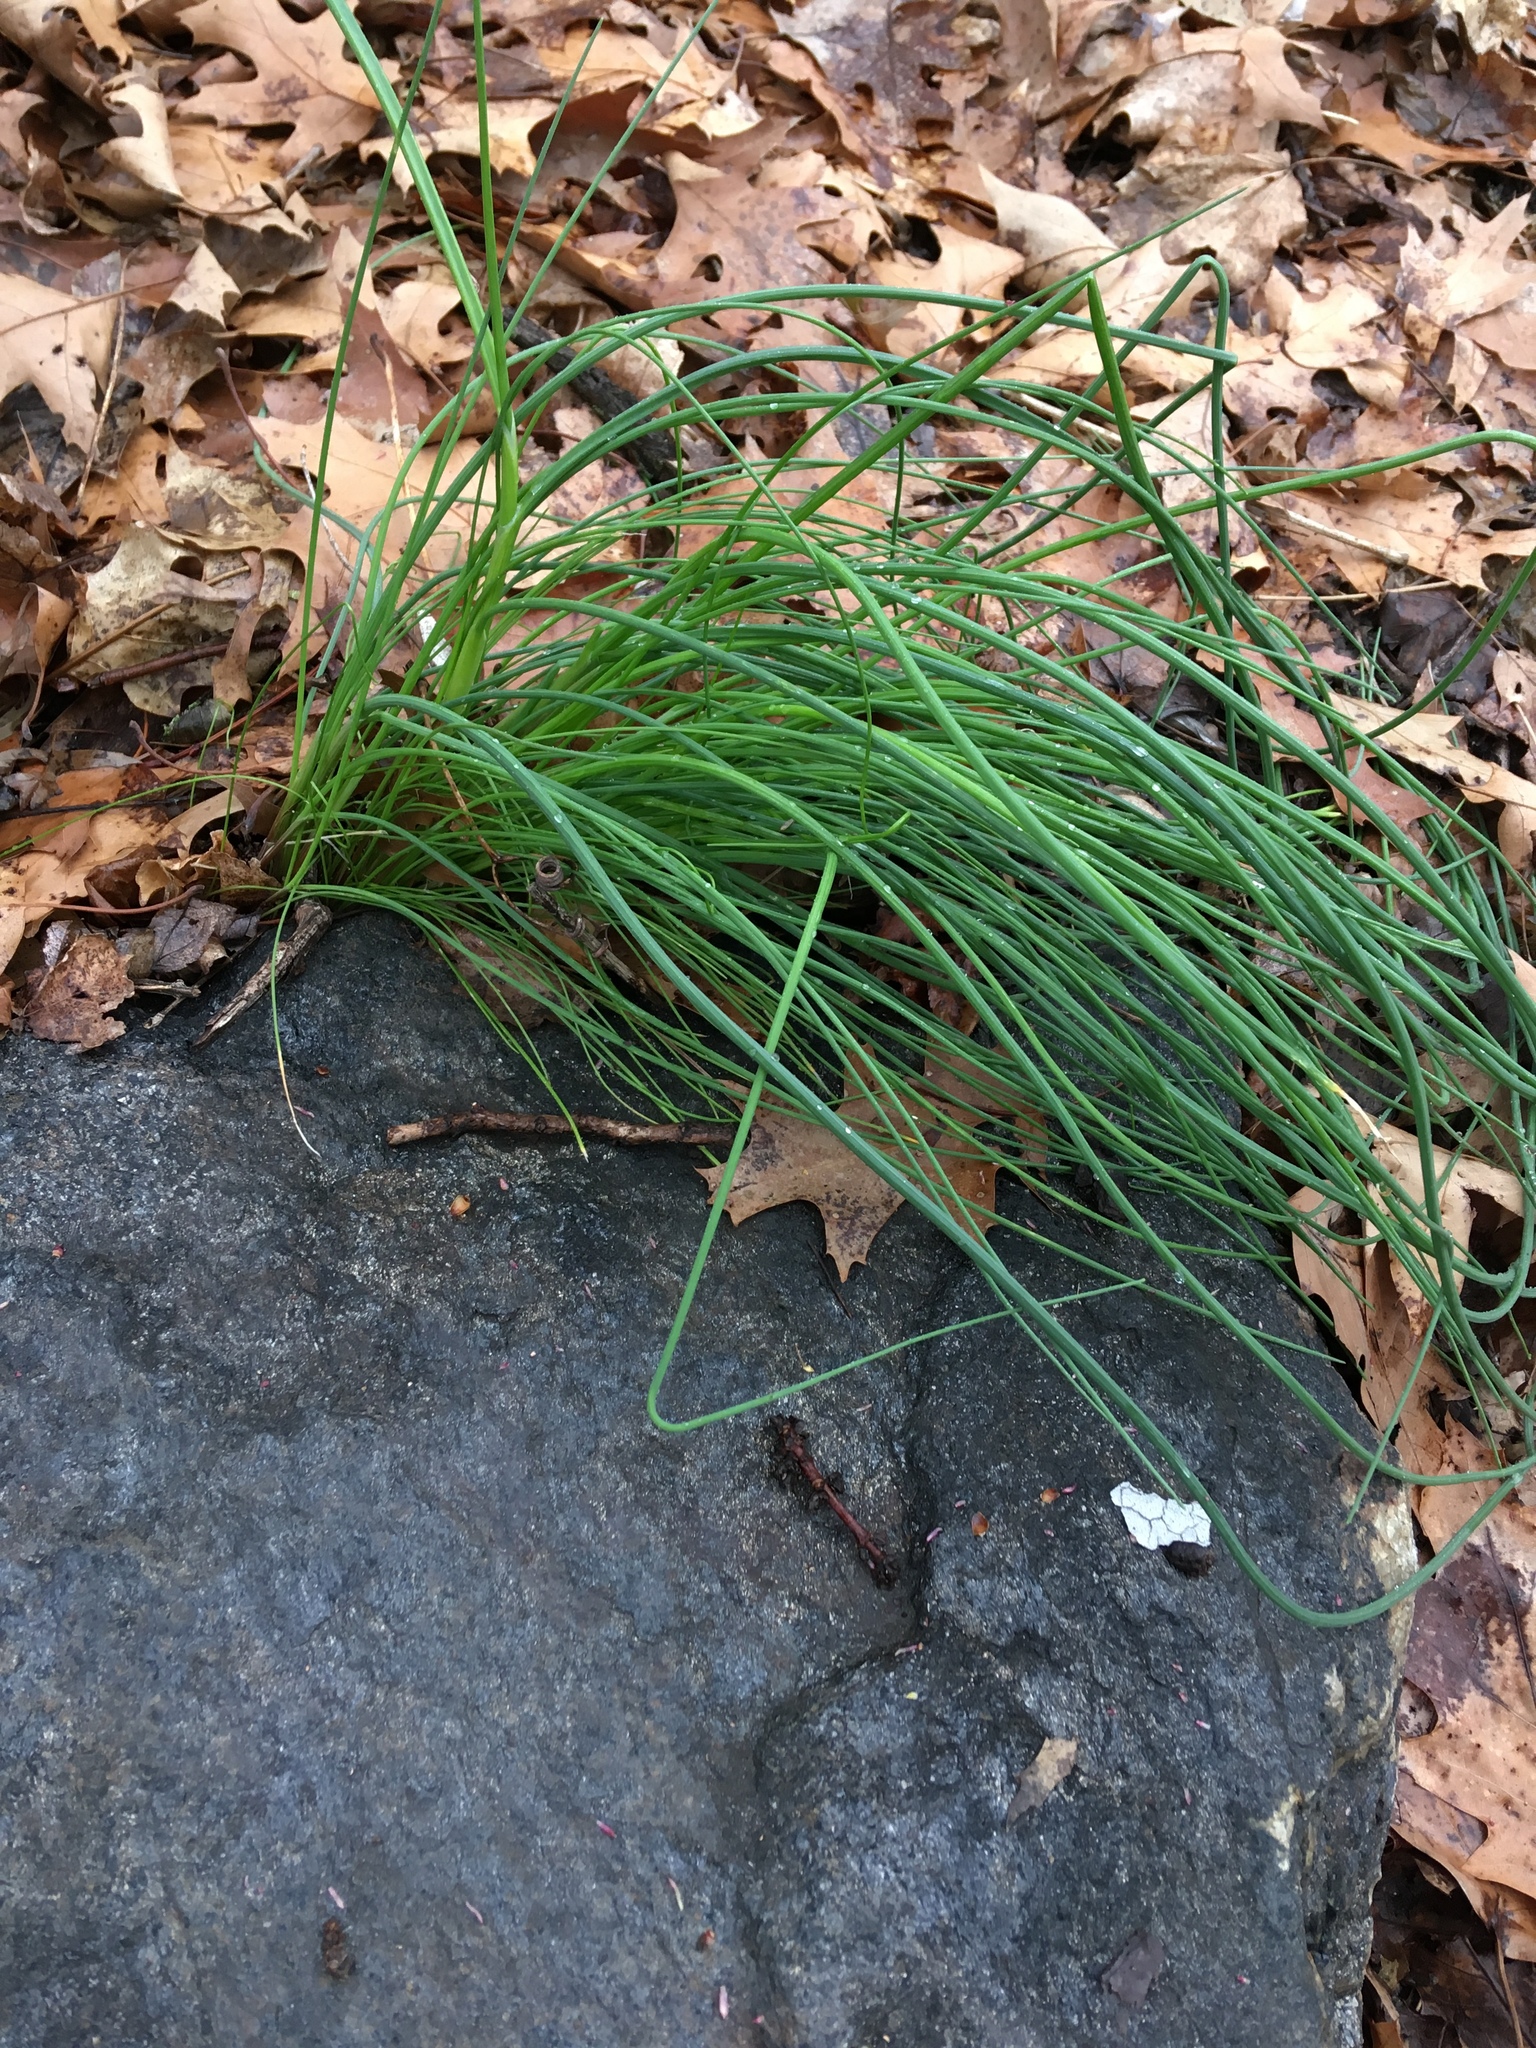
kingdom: Plantae
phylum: Tracheophyta
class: Liliopsida
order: Asparagales
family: Amaryllidaceae
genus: Allium
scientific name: Allium vineale
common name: Crow garlic
